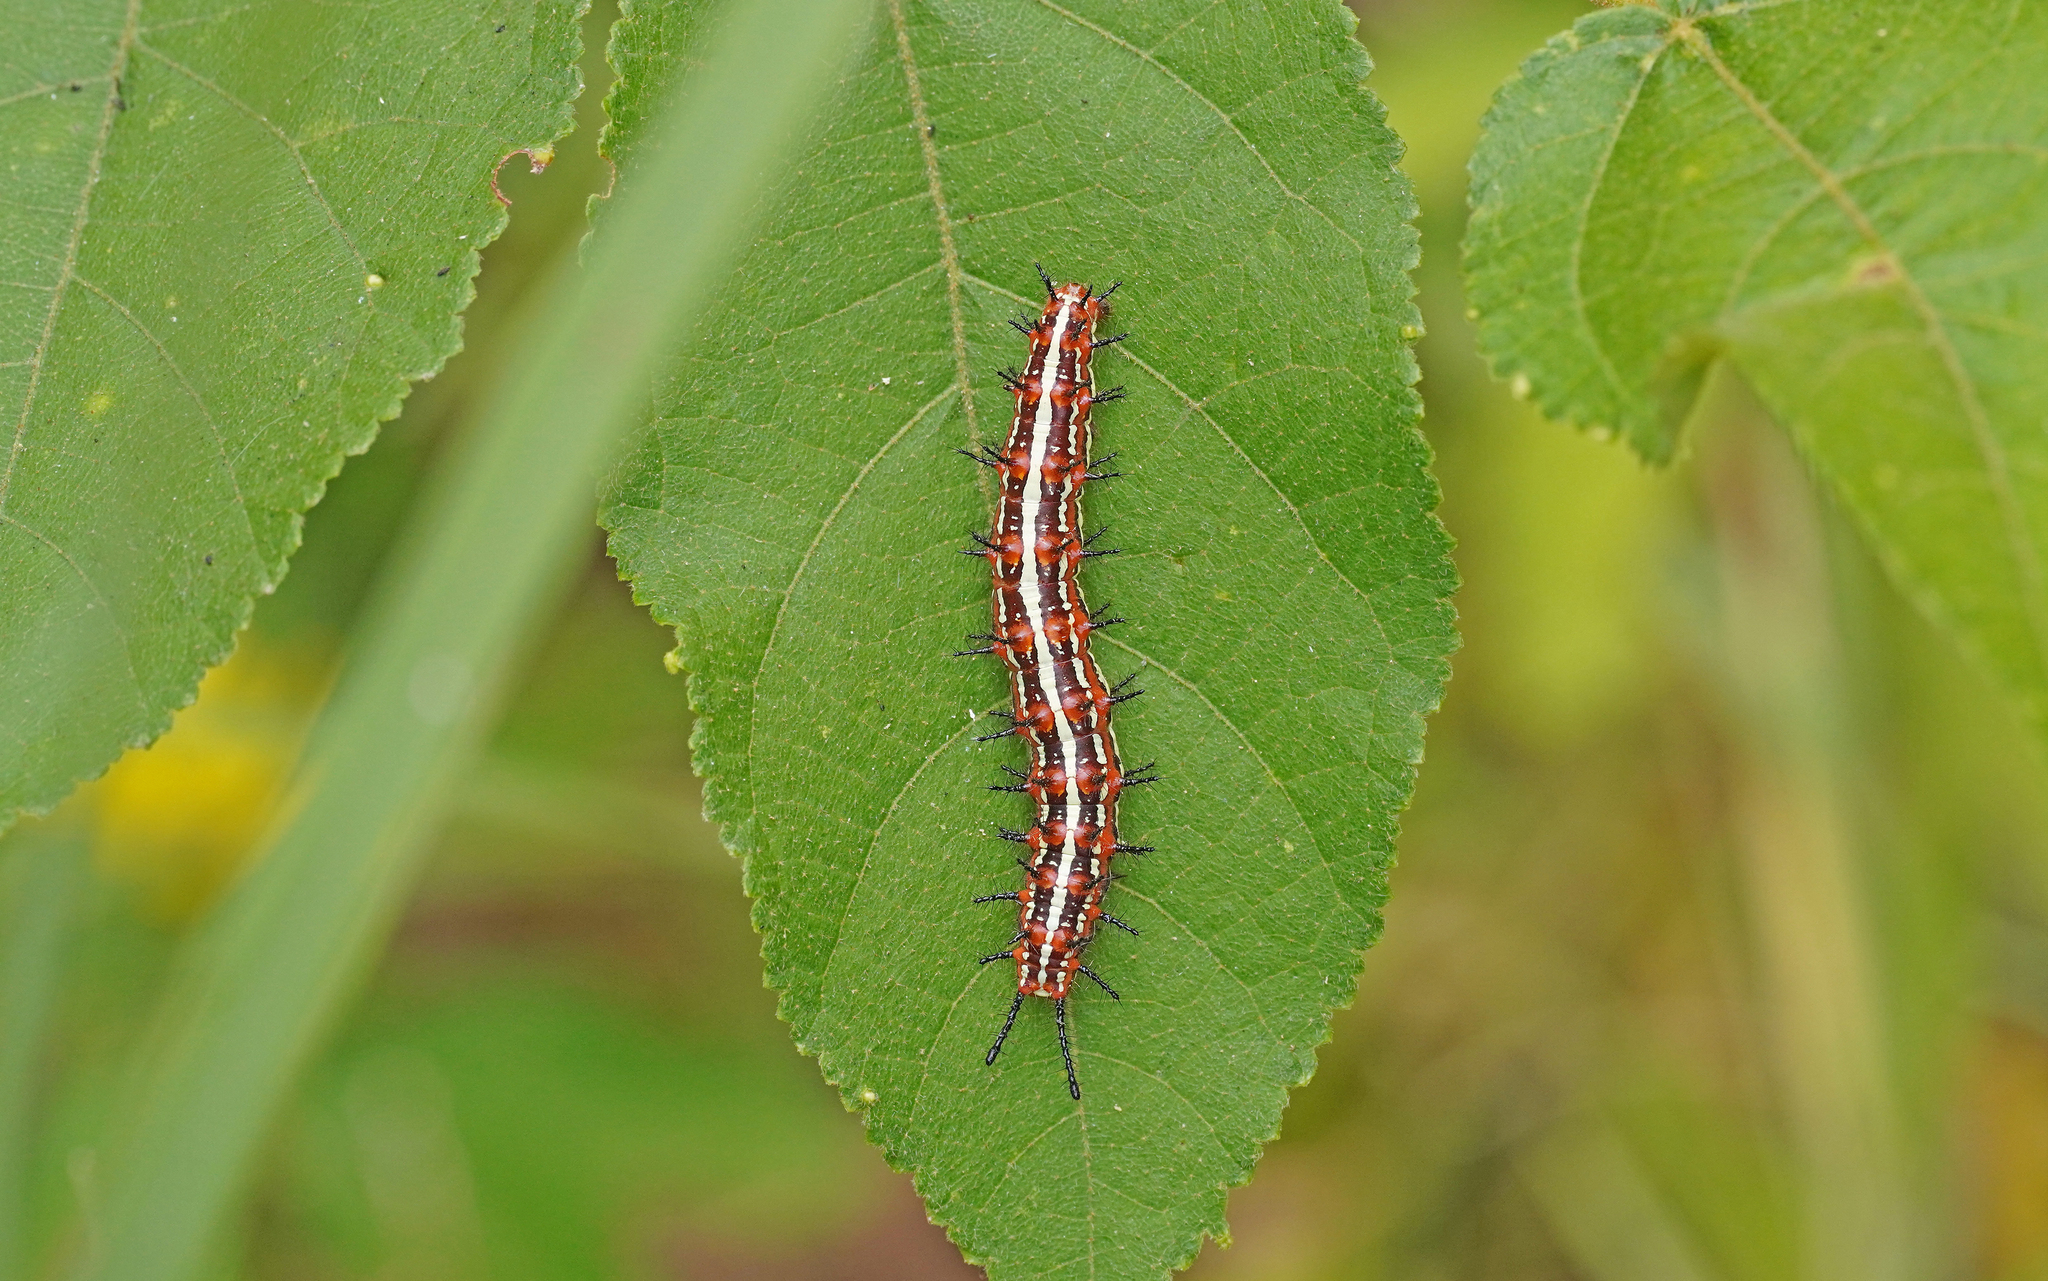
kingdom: Animalia
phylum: Arthropoda
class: Insecta
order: Lepidoptera
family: Nymphalidae
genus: Euptoieta
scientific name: Euptoieta hegesia
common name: Mexican fritillary
